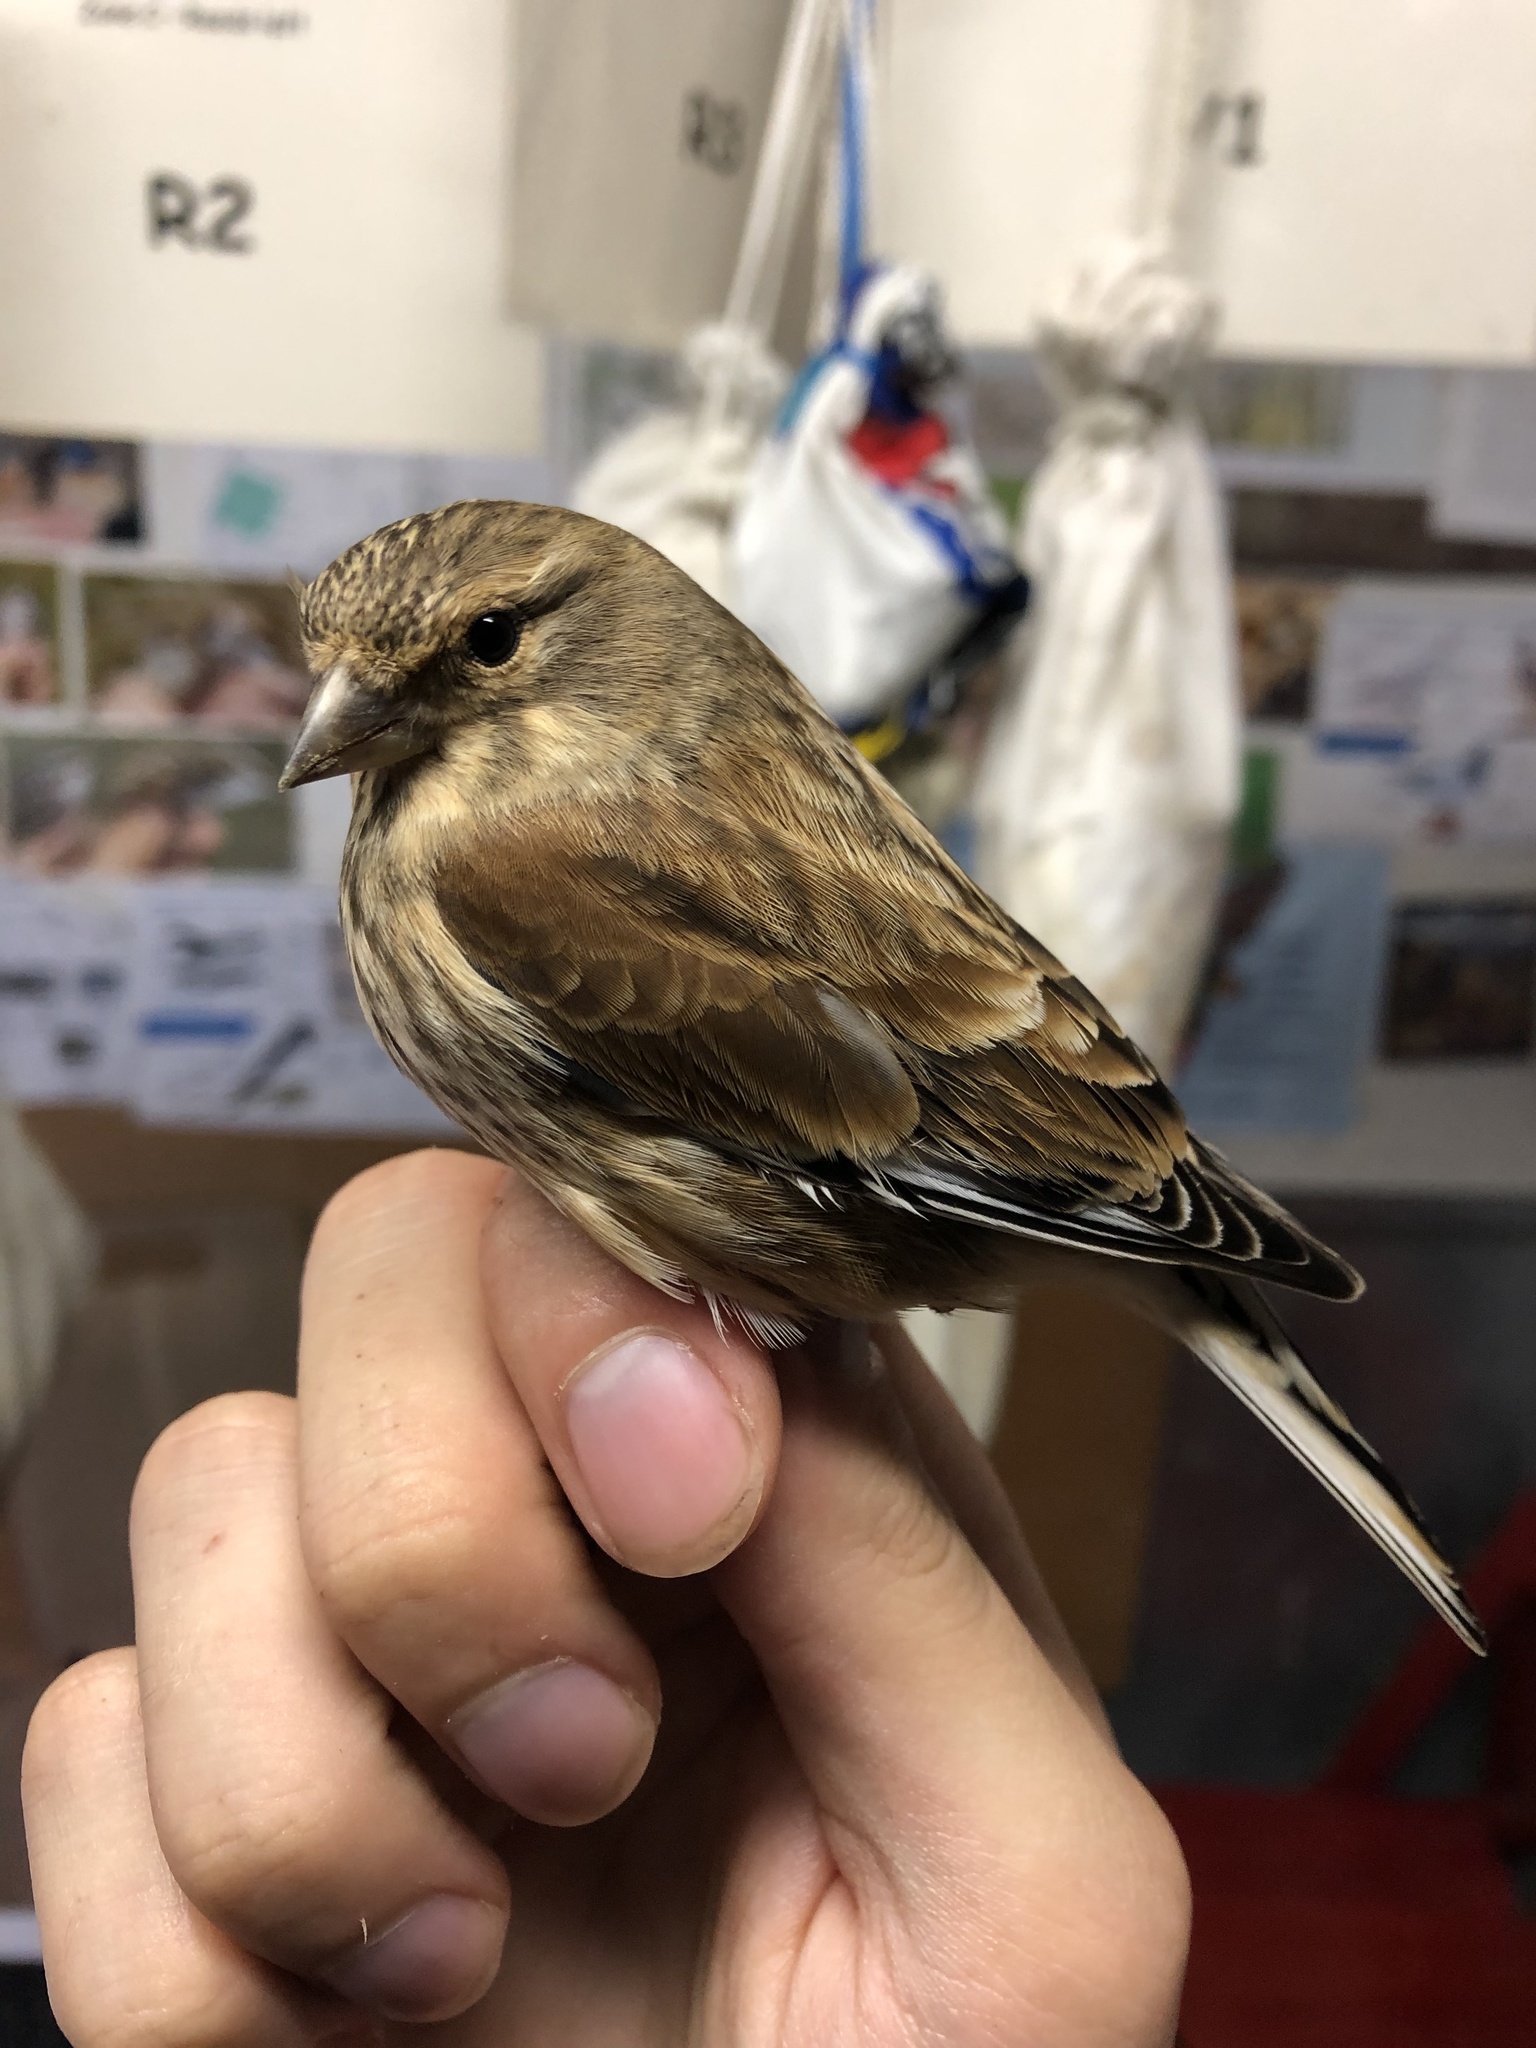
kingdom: Animalia
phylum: Chordata
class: Aves
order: Passeriformes
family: Fringillidae
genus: Linaria
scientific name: Linaria cannabina
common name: Common linnet
